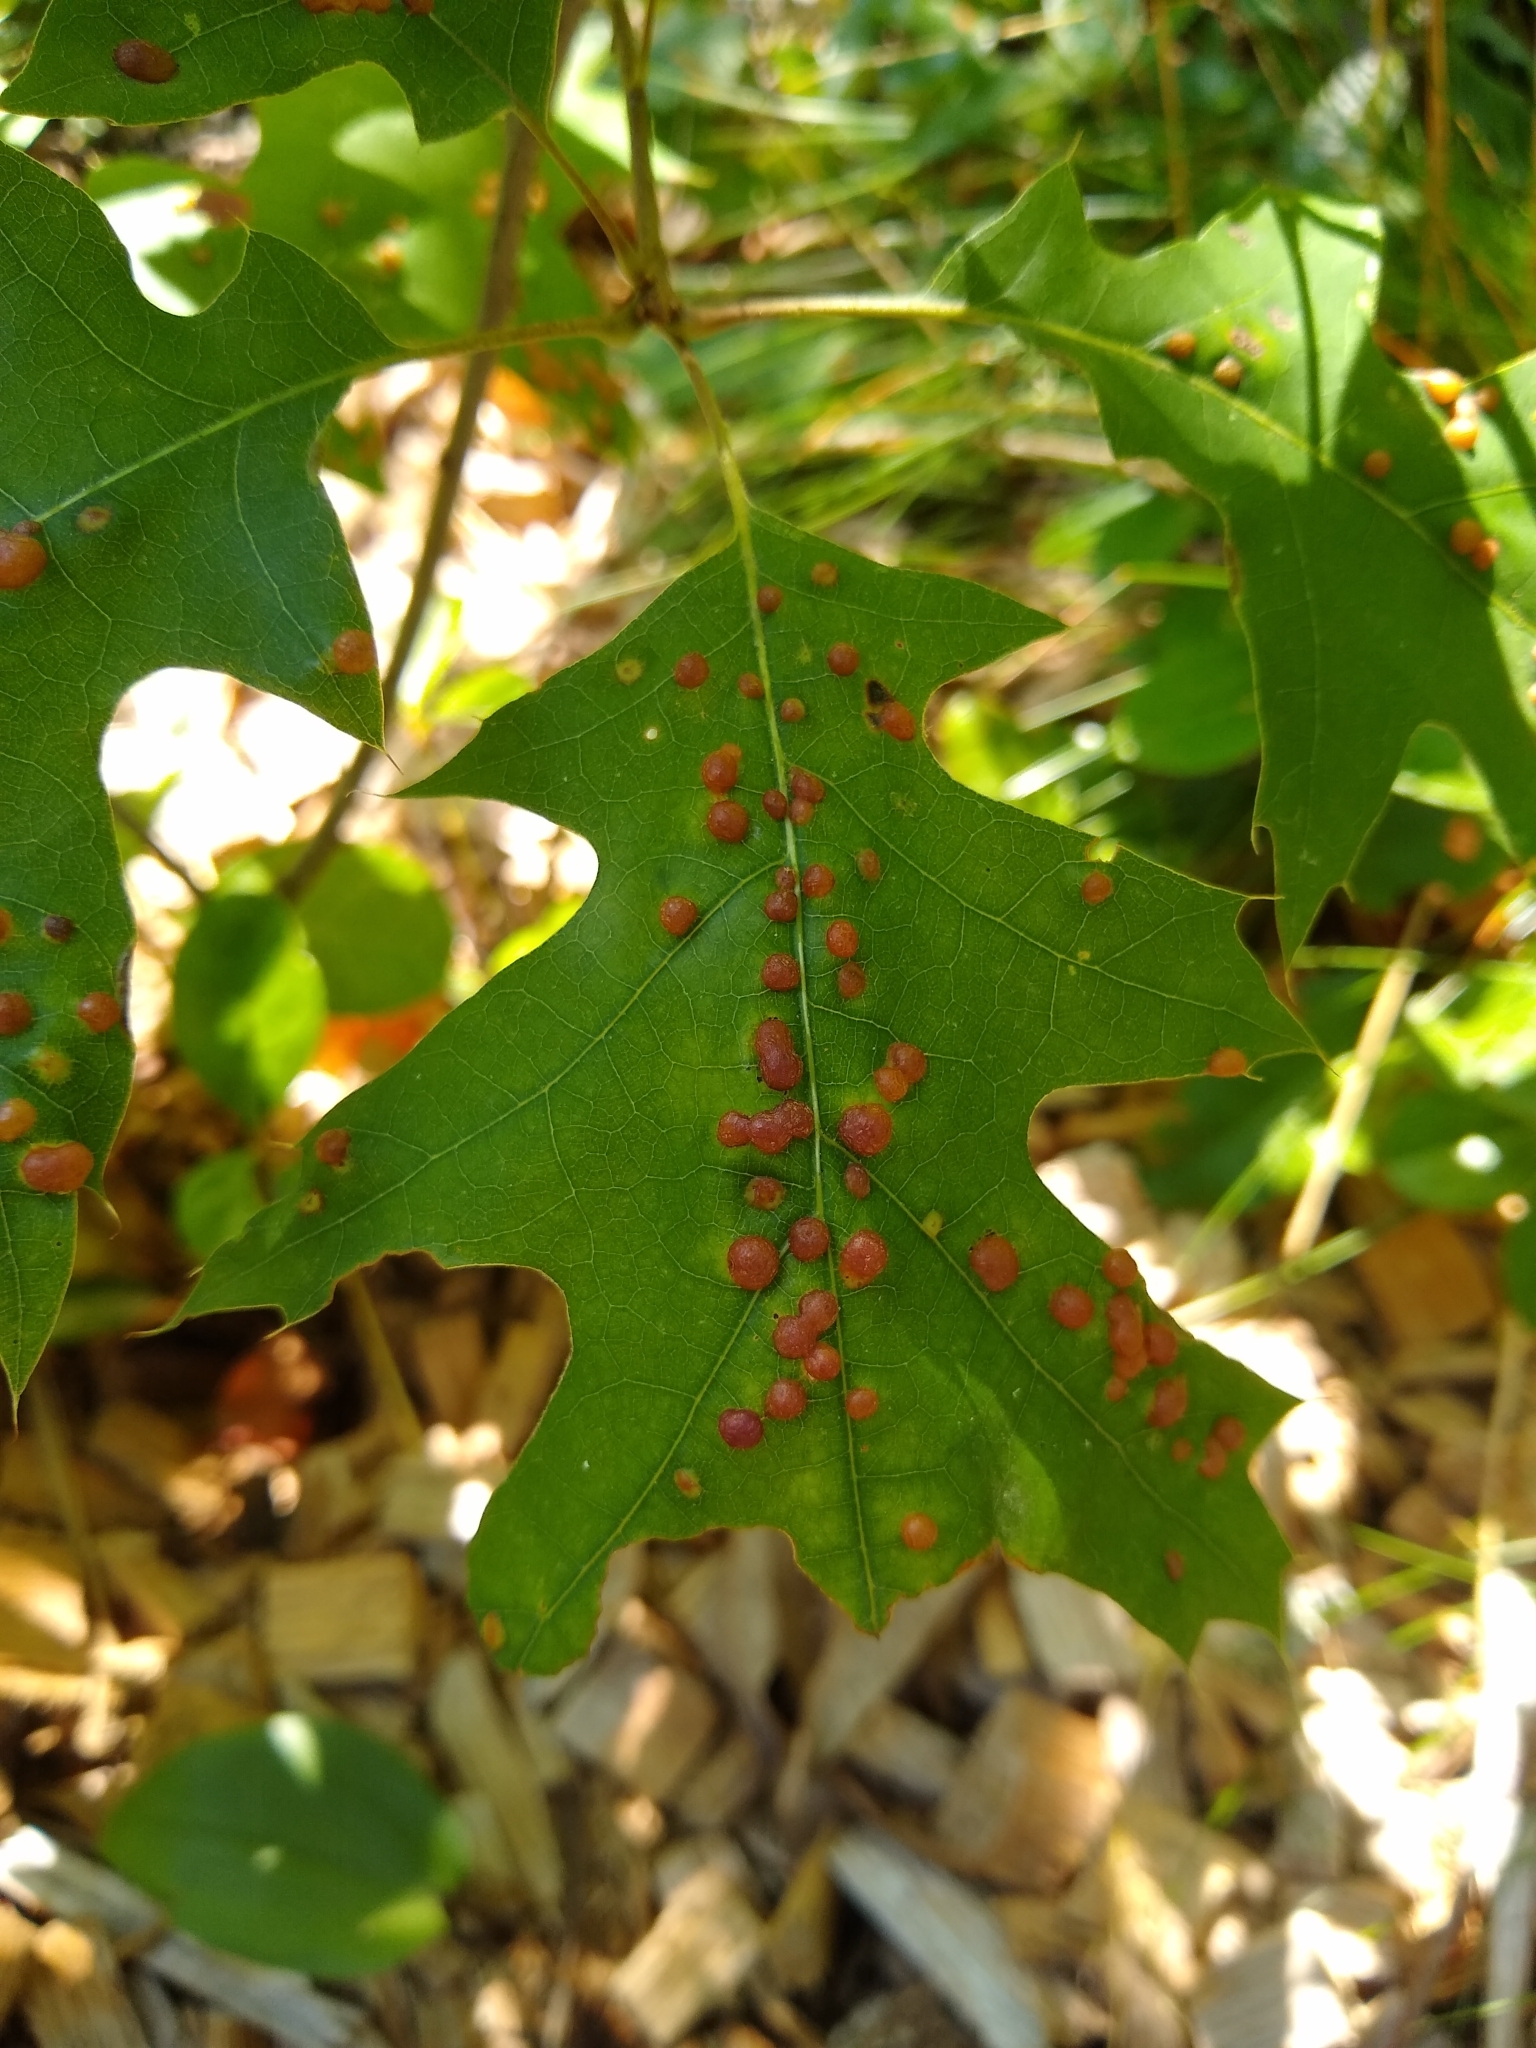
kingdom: Animalia
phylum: Arthropoda
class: Insecta
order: Diptera
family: Cecidomyiidae
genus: Polystepha
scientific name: Polystepha pilulae
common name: Oak leaf gall midge
